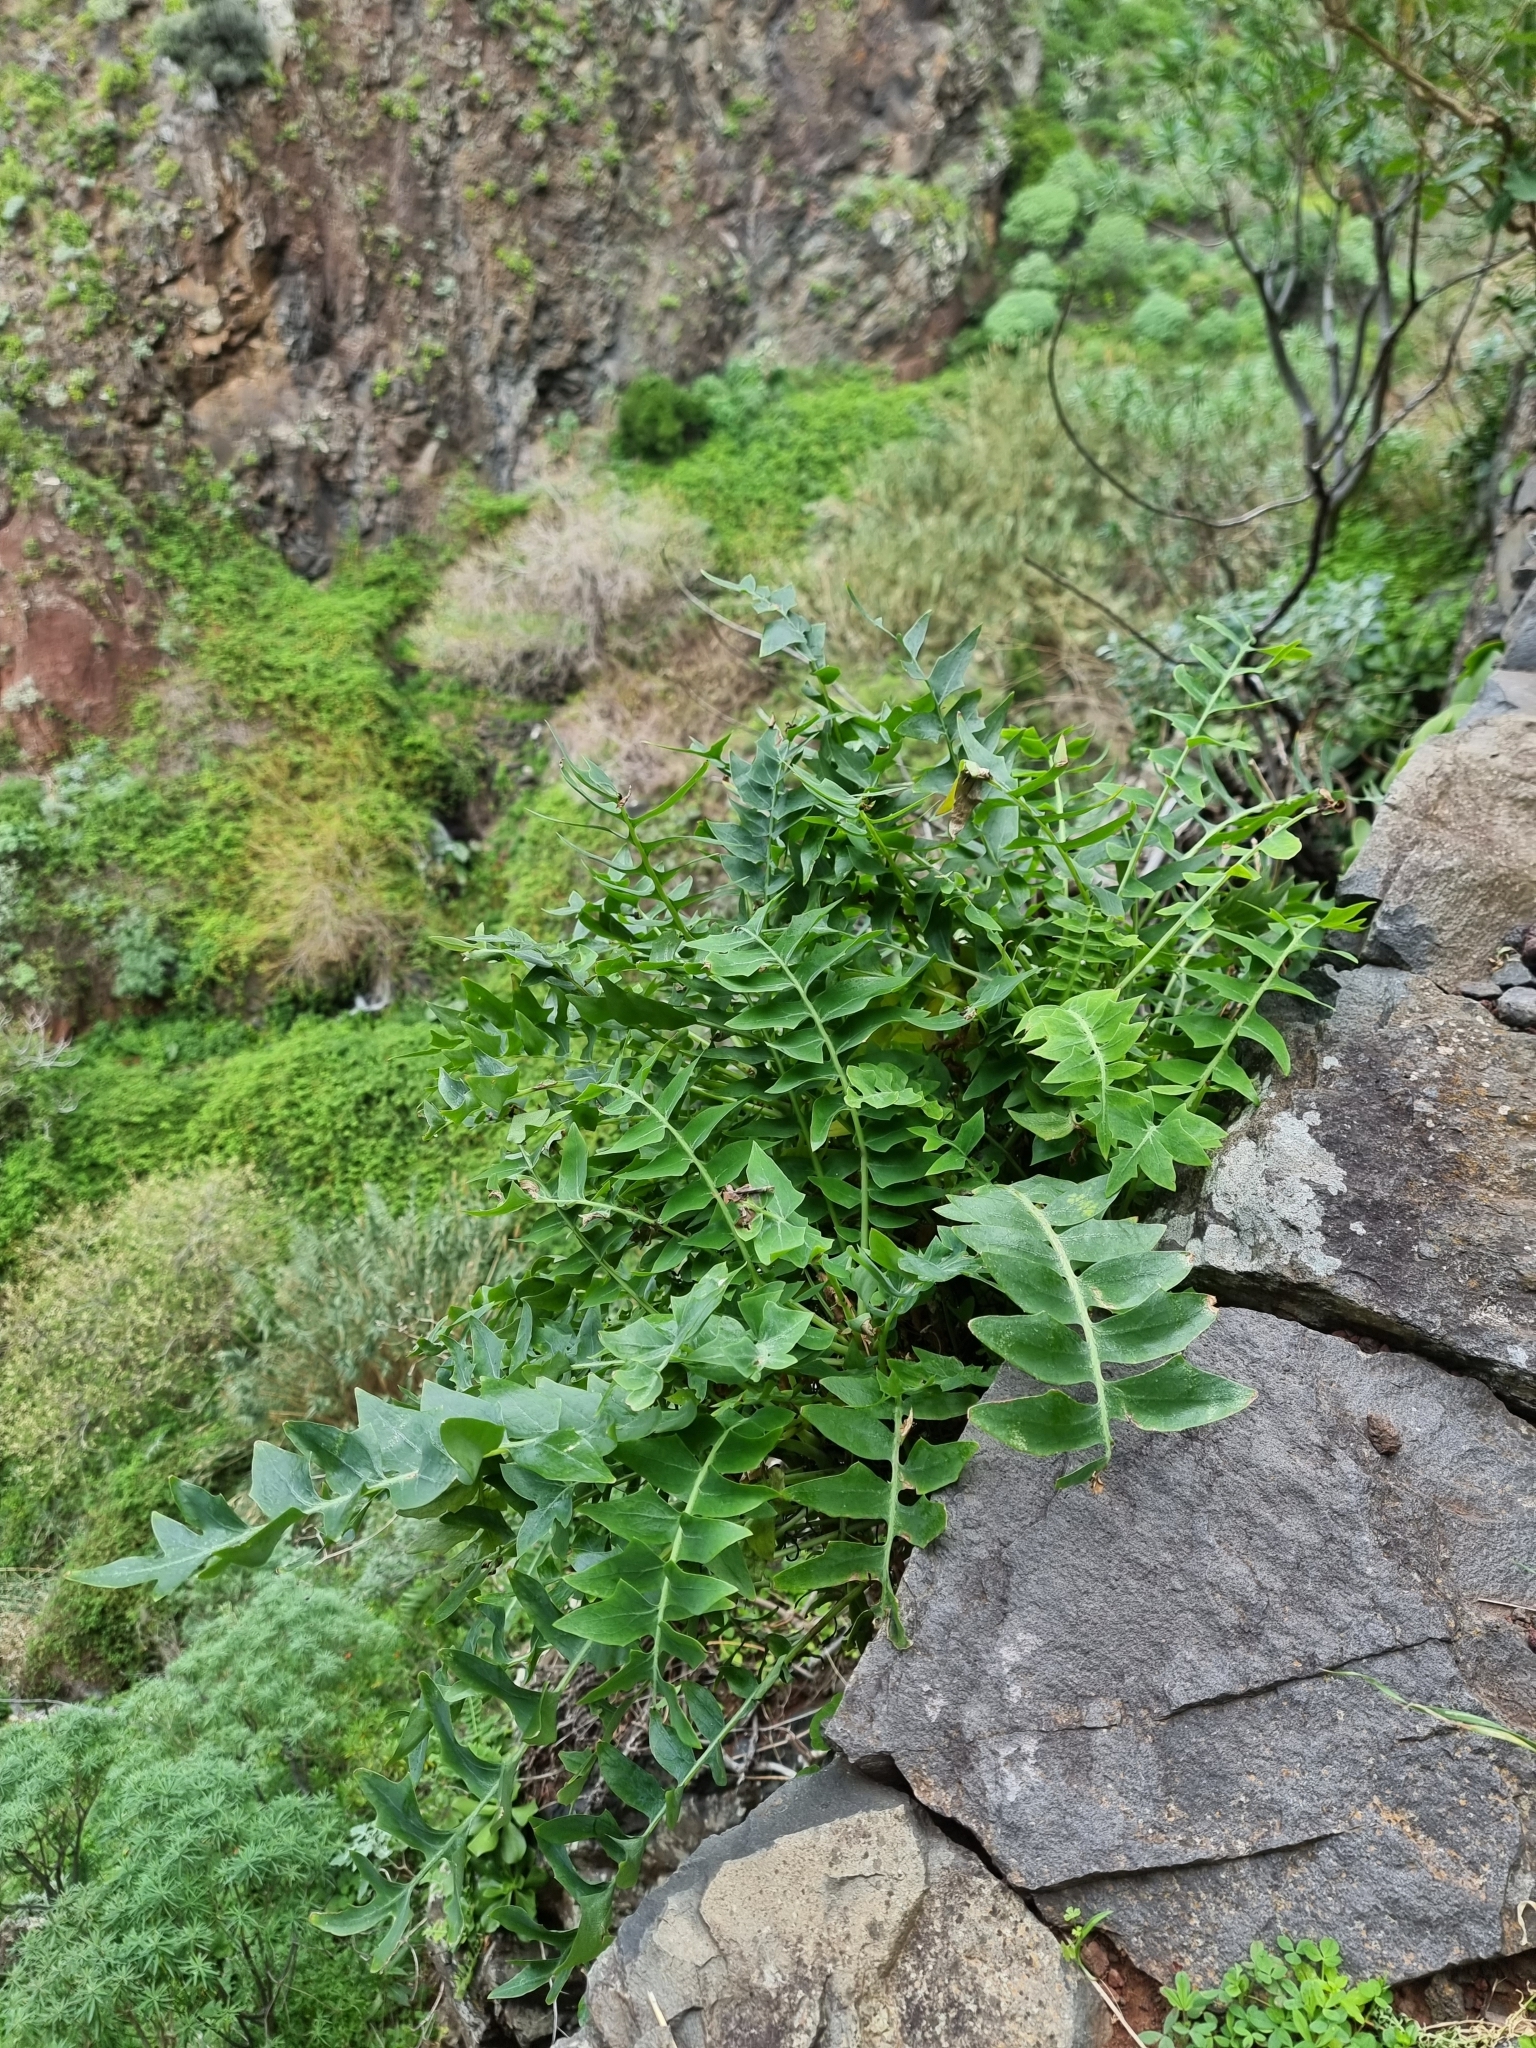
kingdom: Plantae
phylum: Tracheophyta
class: Magnoliopsida
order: Asterales
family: Asteraceae
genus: Sonchus
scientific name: Sonchus latifolius
